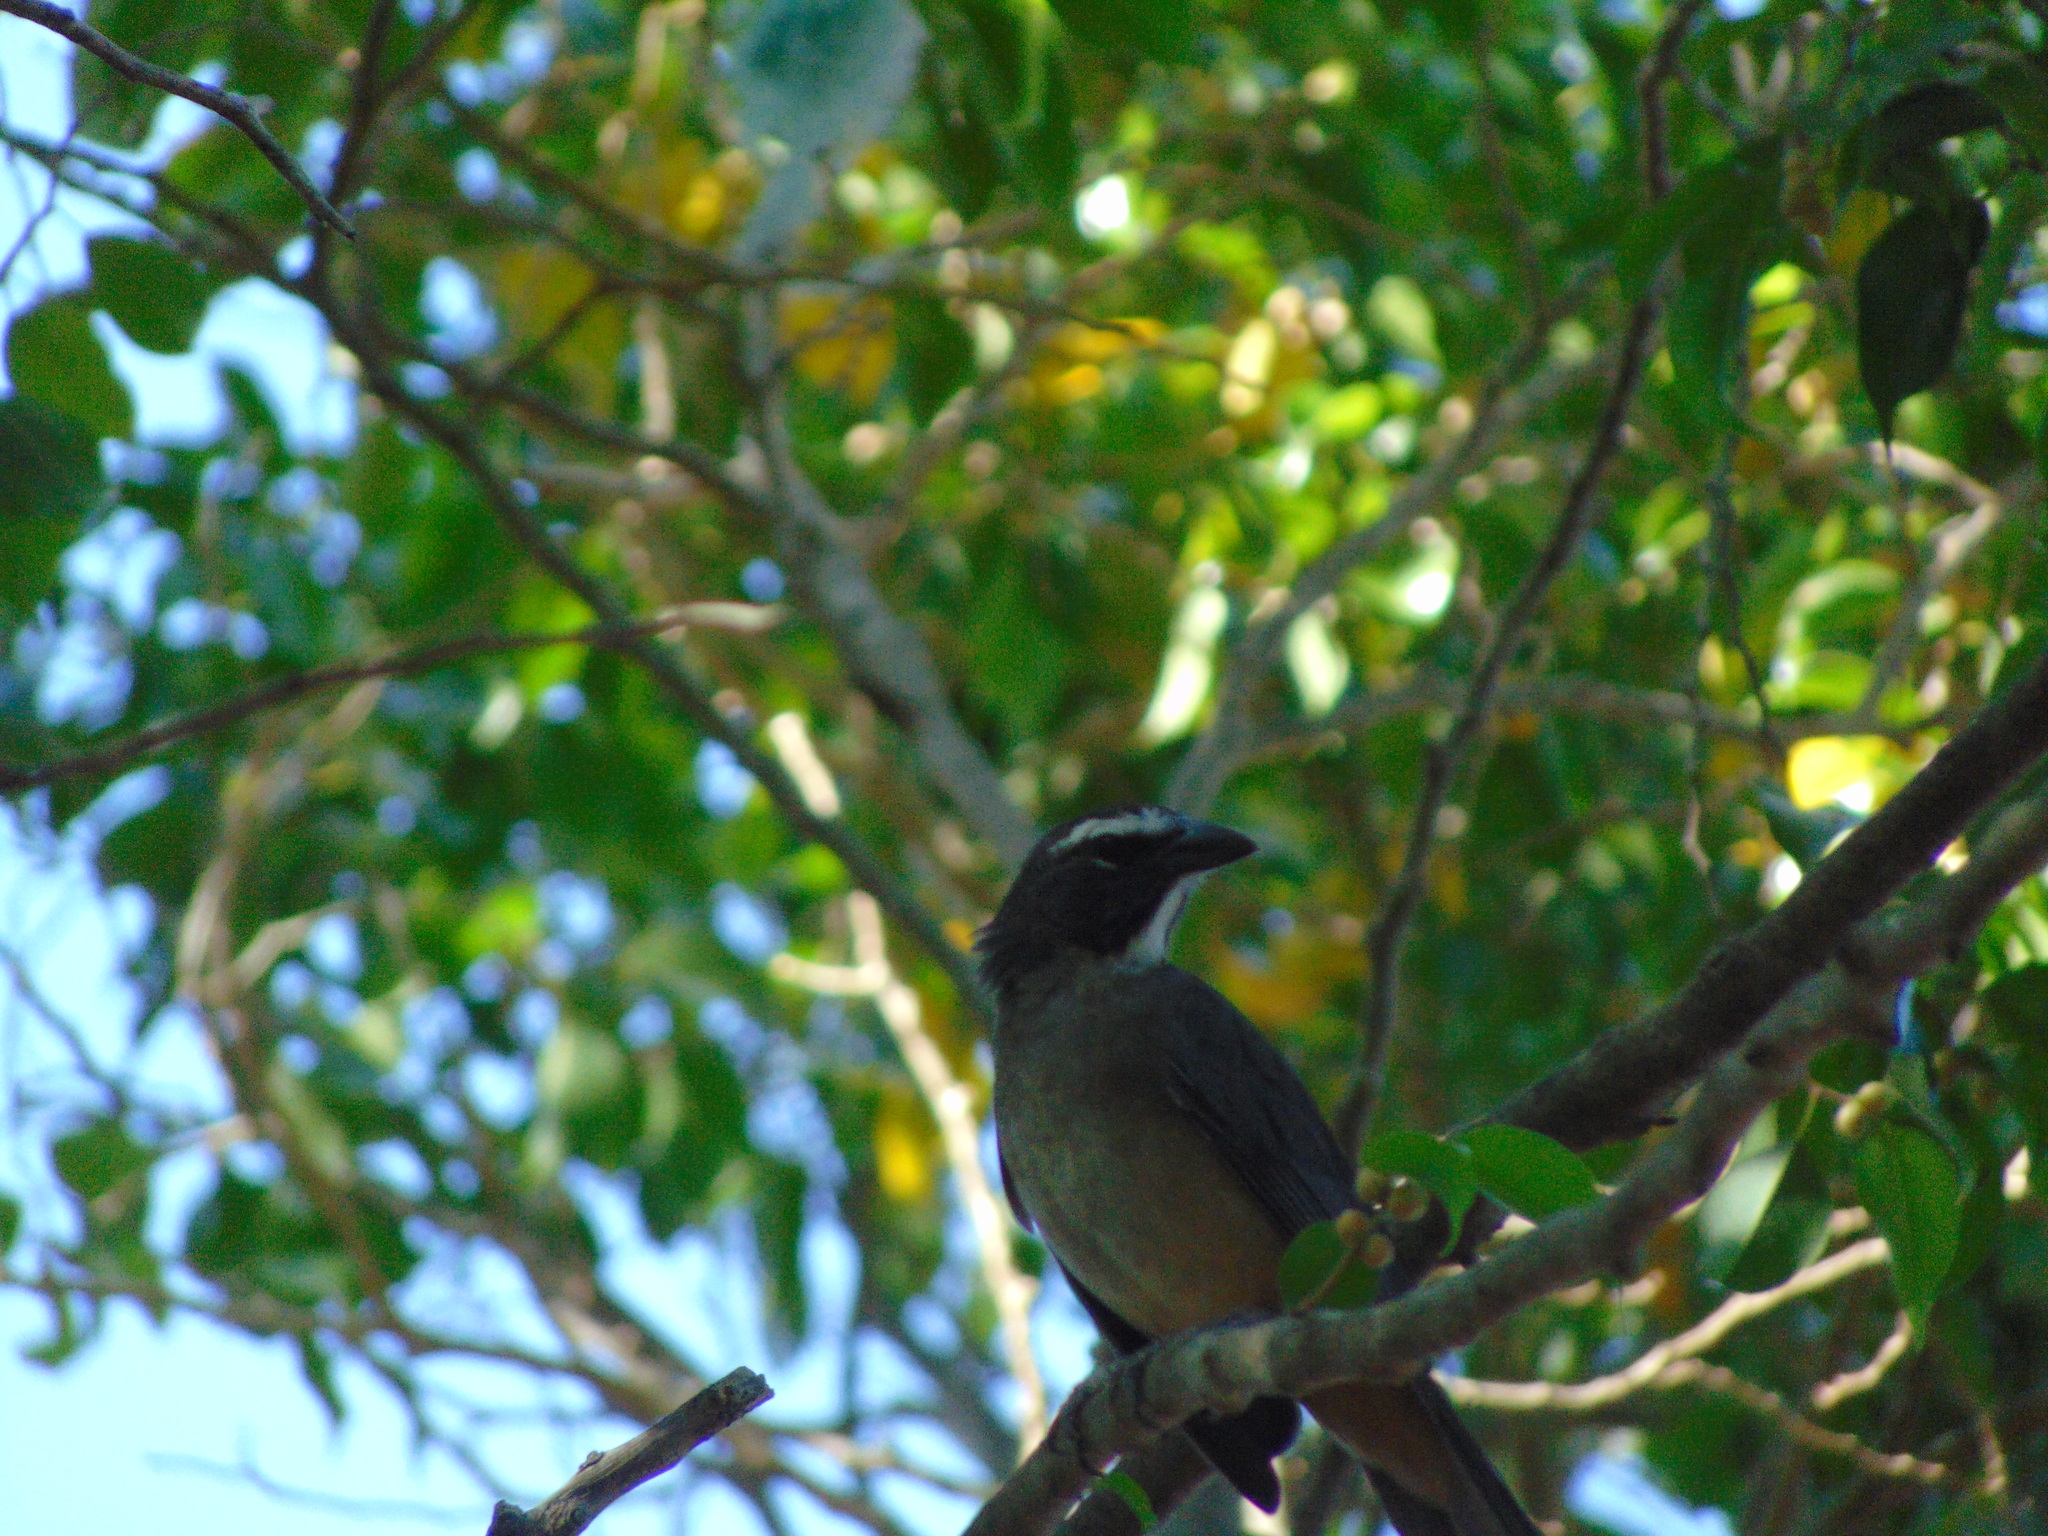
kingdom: Animalia
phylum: Chordata
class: Aves
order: Passeriformes
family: Thraupidae
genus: Saltator
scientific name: Saltator grandis
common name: Cinnamon-bellied saltator
